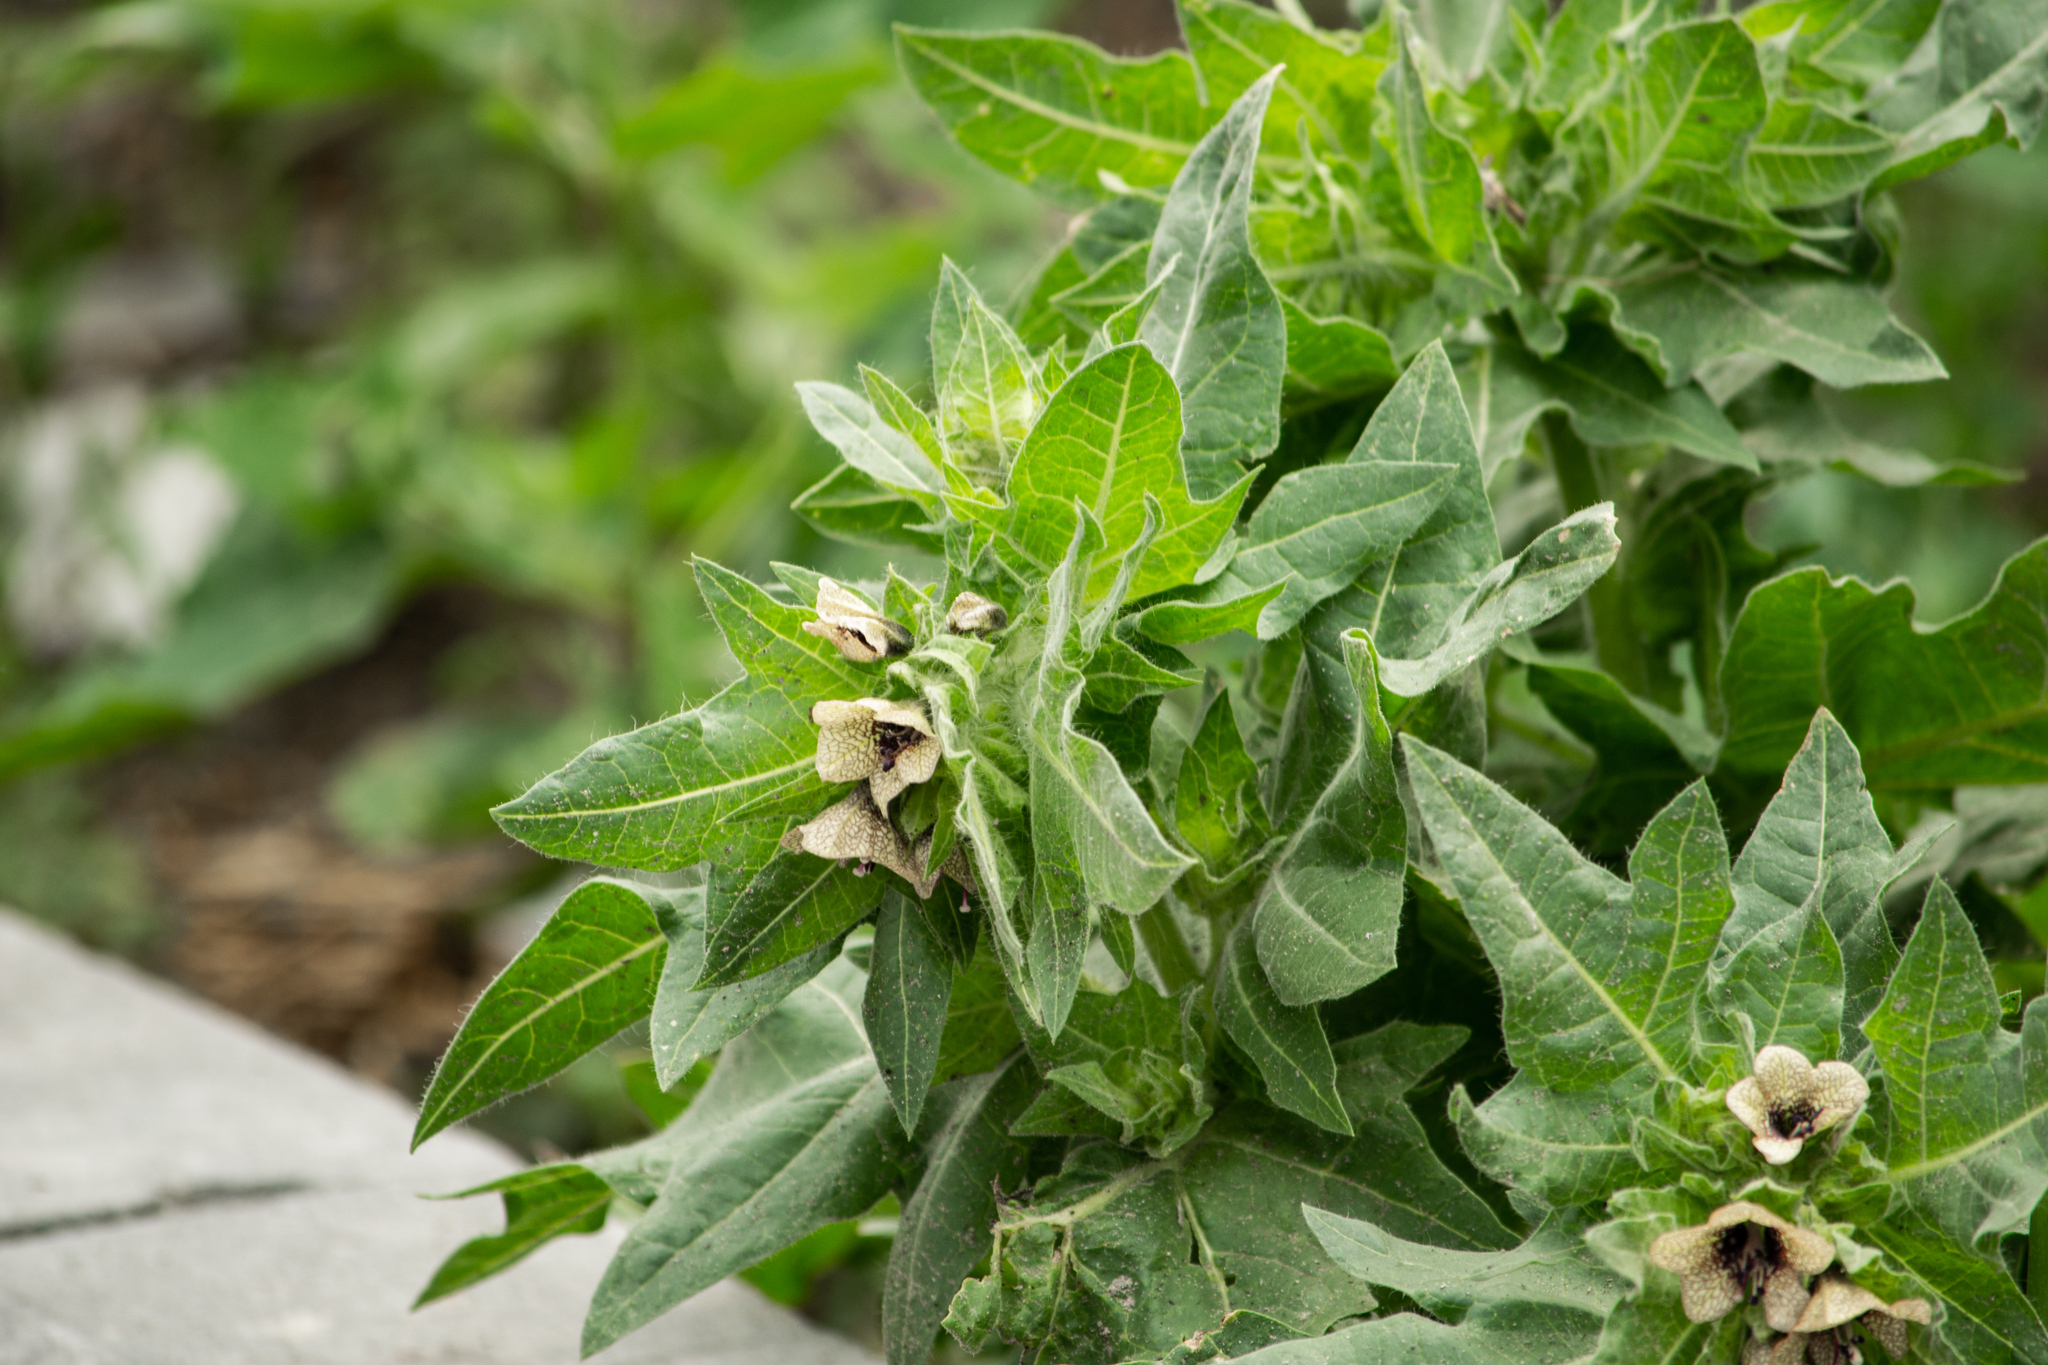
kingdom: Plantae
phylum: Tracheophyta
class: Magnoliopsida
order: Solanales
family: Solanaceae
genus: Hyoscyamus
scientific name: Hyoscyamus niger
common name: Henbane
